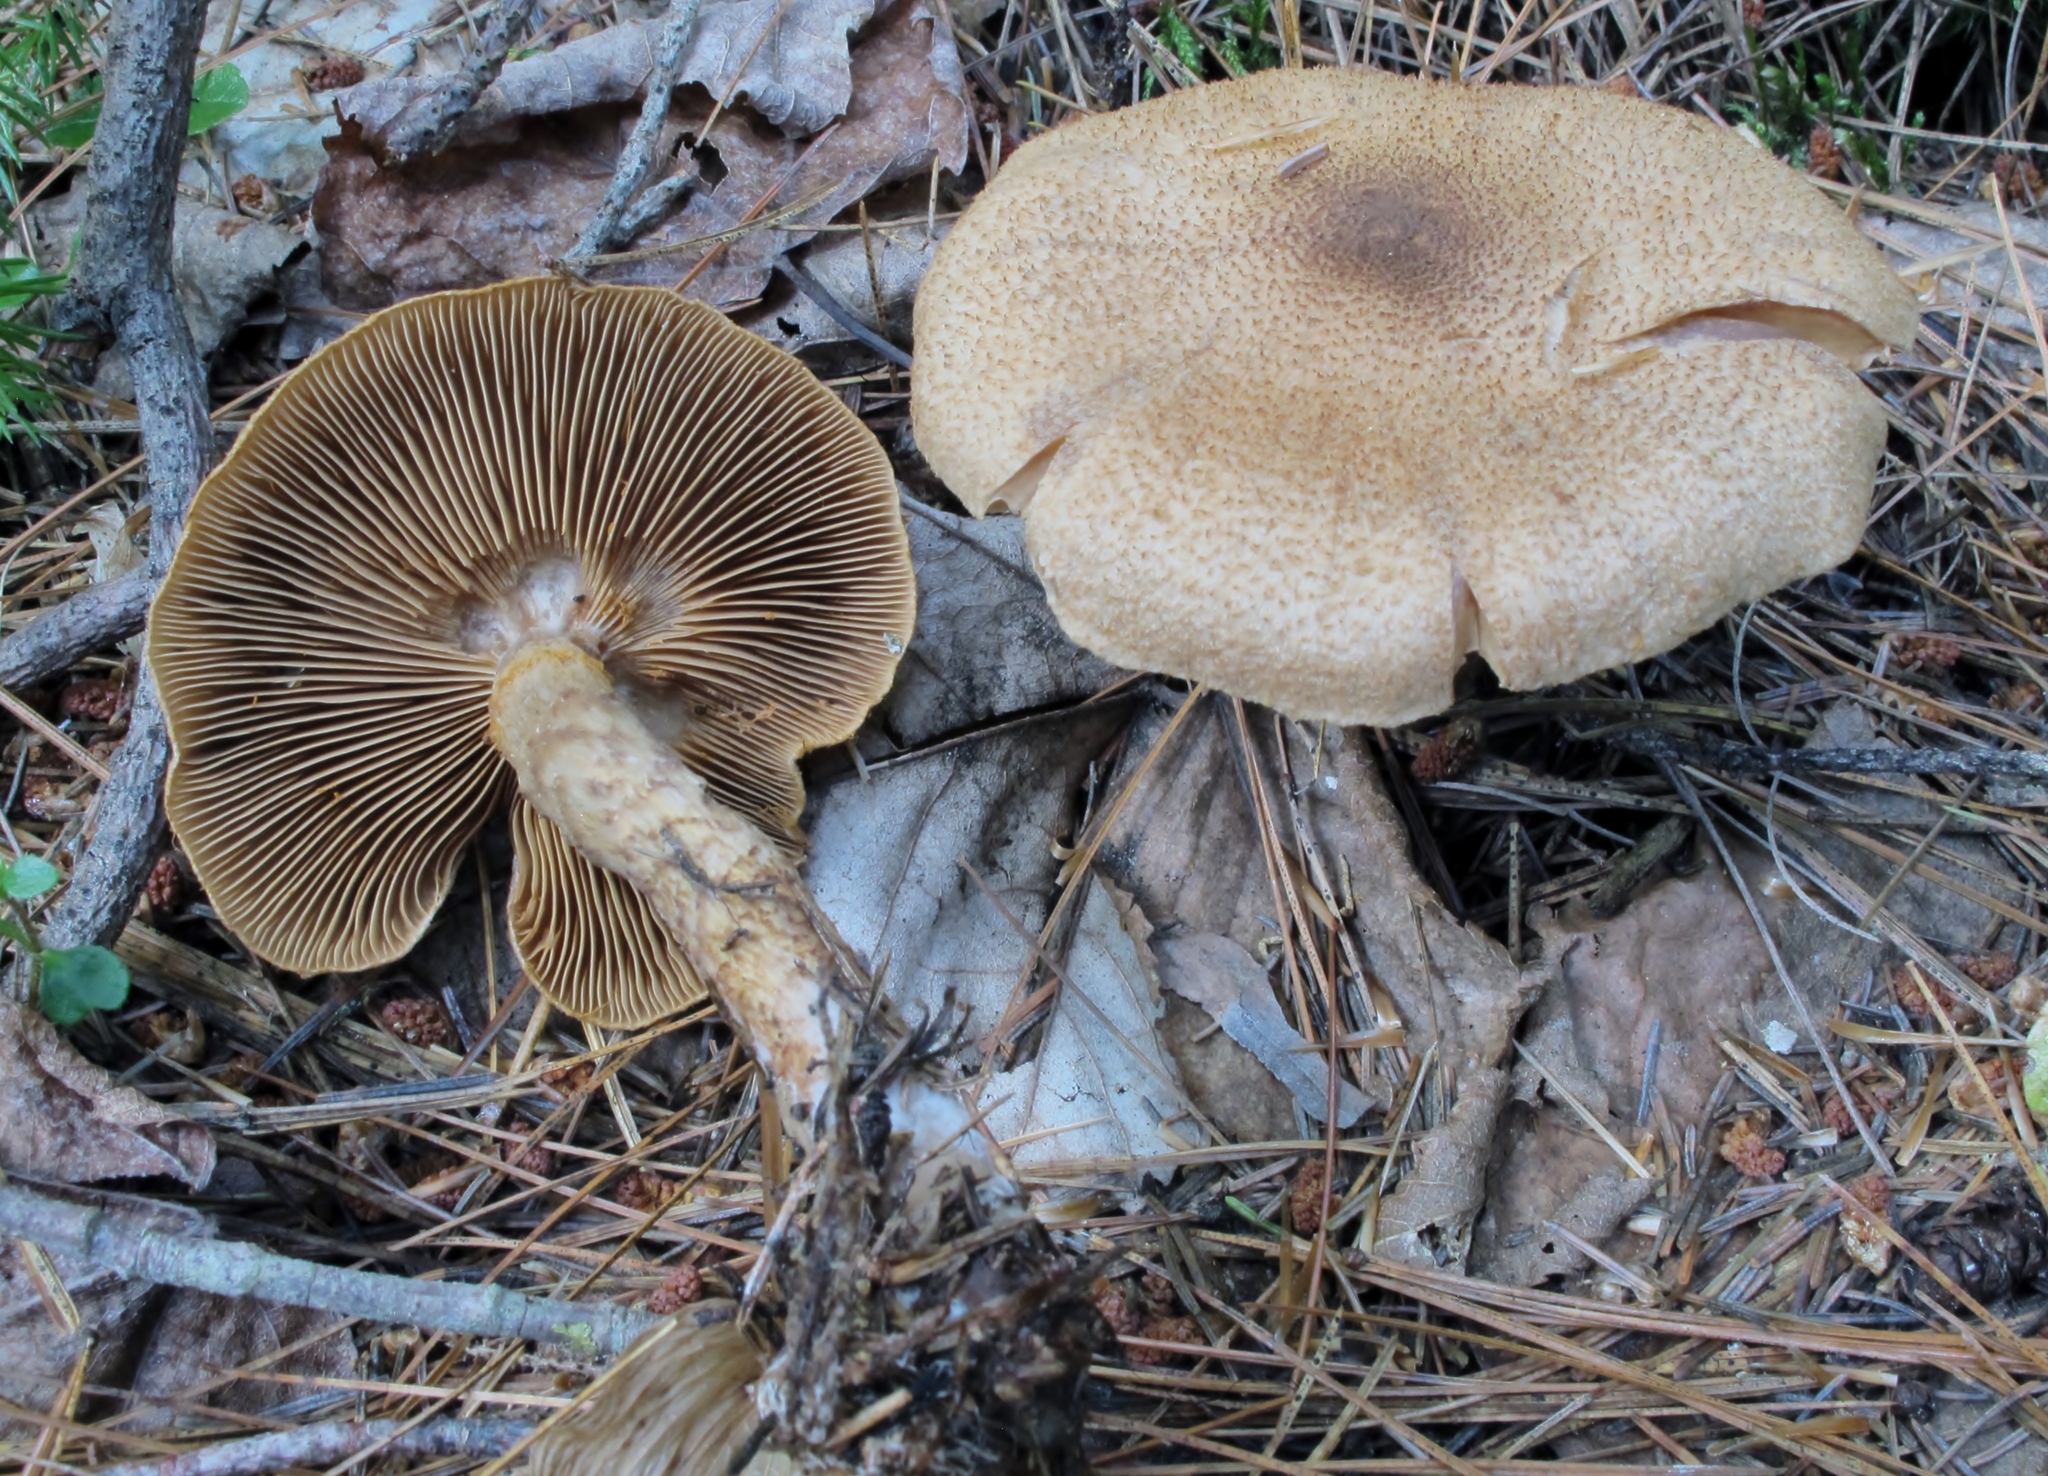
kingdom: Fungi
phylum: Basidiomycota
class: Agaricomycetes
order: Agaricales
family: Cortinariaceae
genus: Cortinarius
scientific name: Cortinarius pholideus
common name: Scaly webcap
